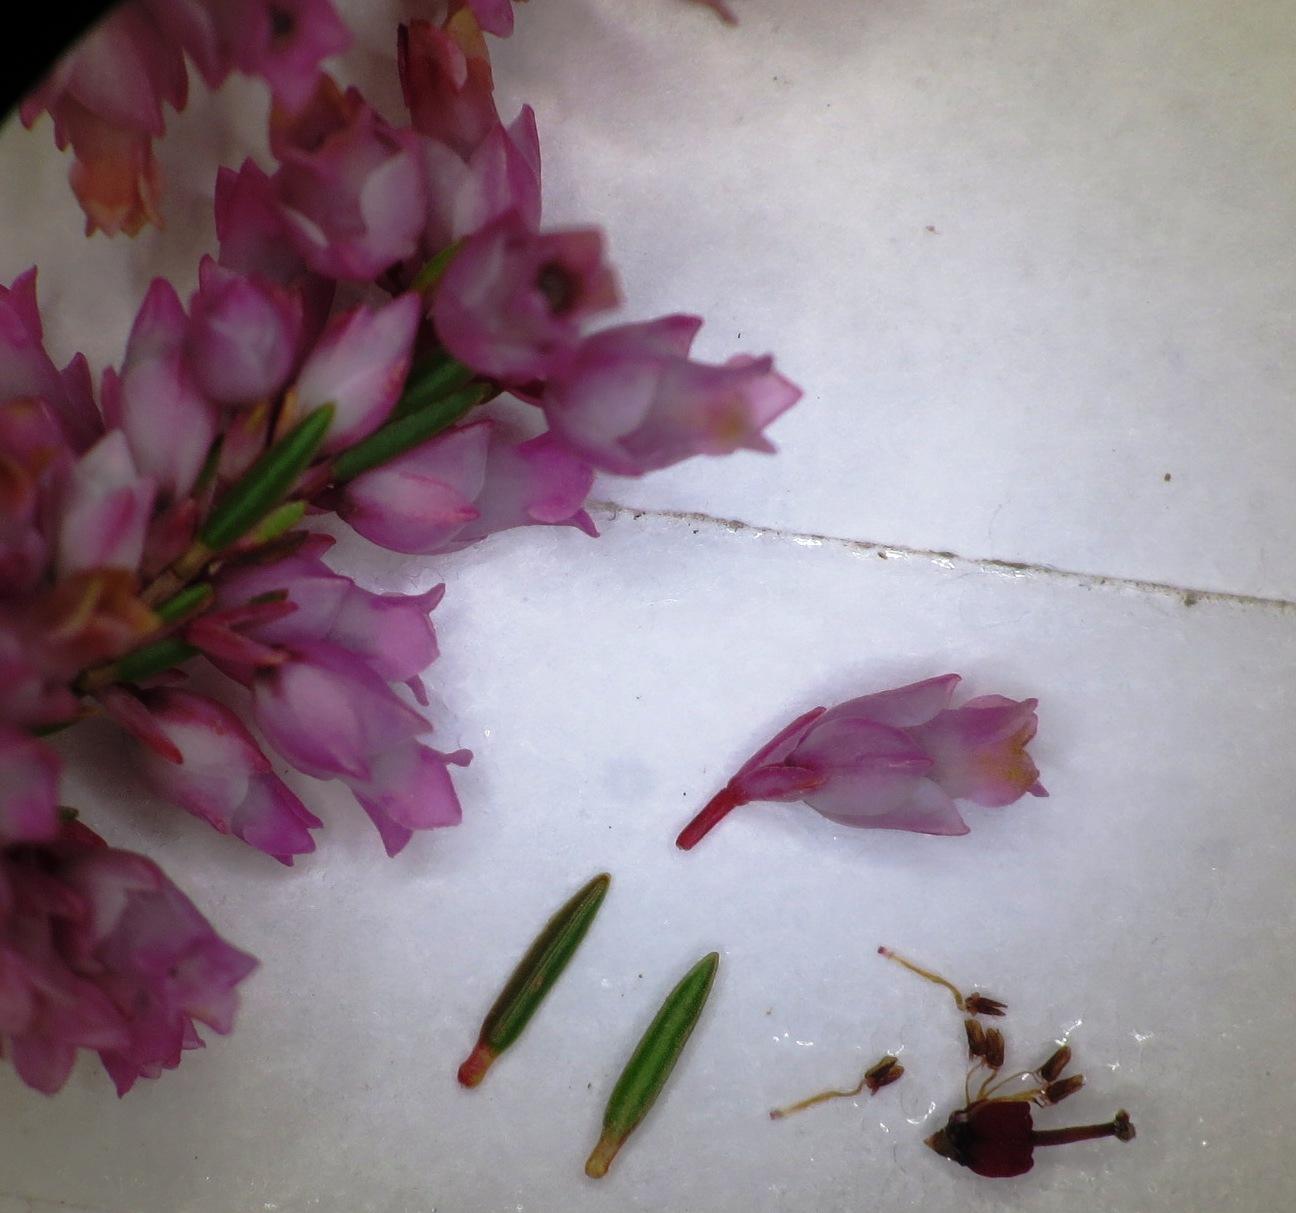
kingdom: Plantae
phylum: Tracheophyta
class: Magnoliopsida
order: Ericales
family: Ericaceae
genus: Erica
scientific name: Erica tenuifolia
